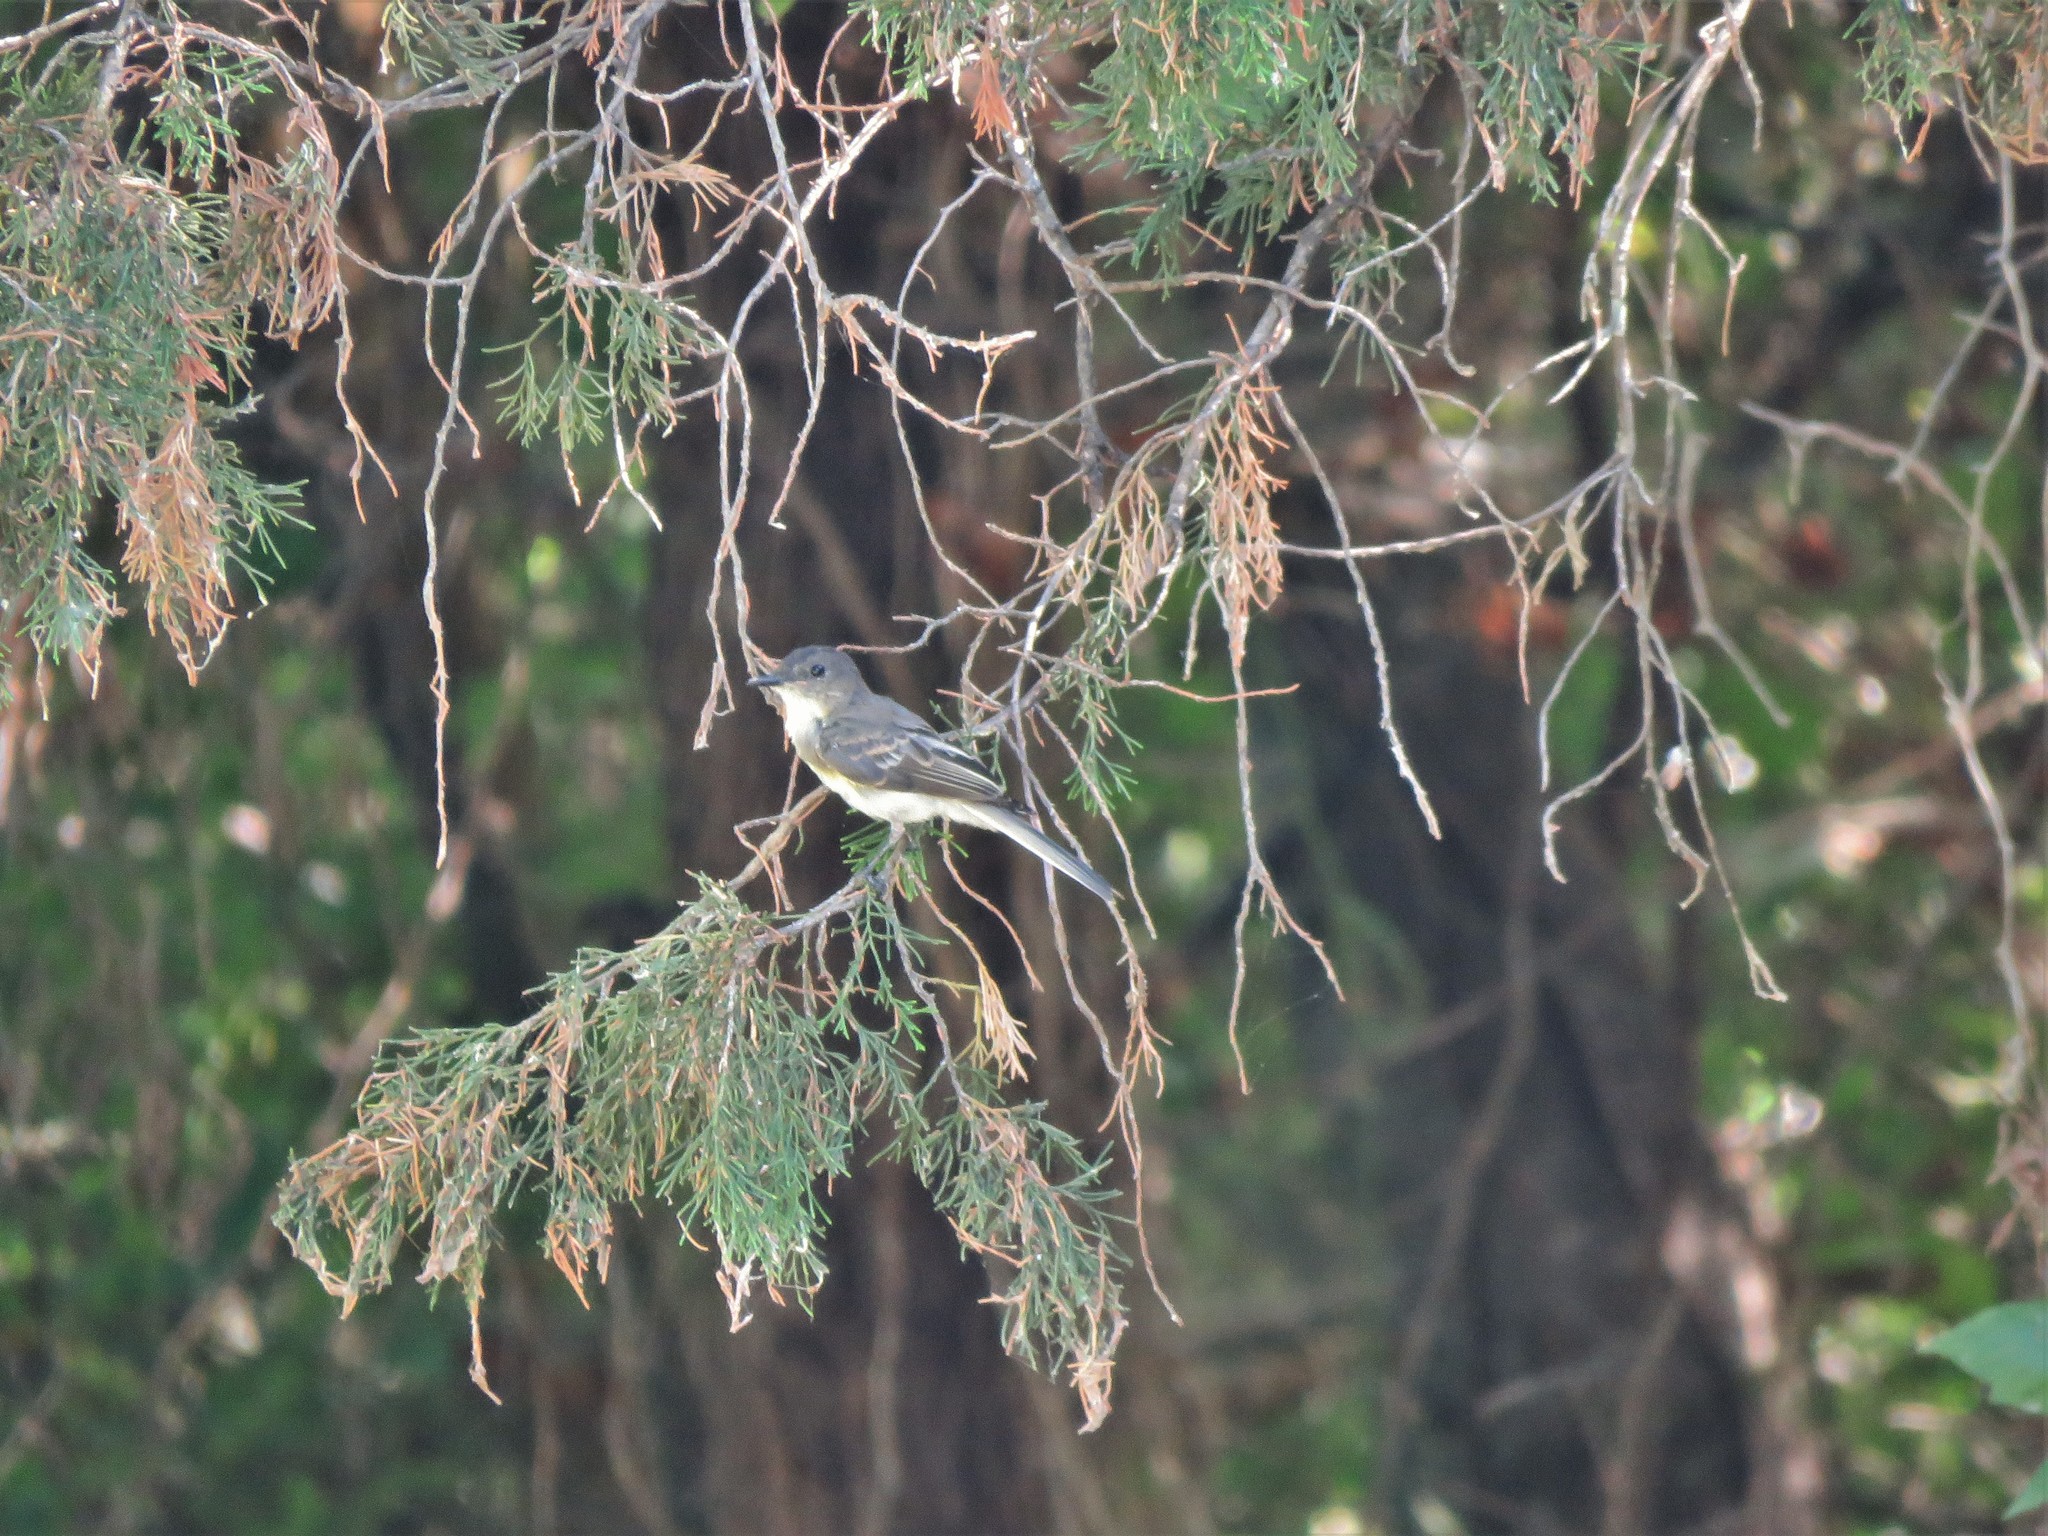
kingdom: Animalia
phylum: Chordata
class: Aves
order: Passeriformes
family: Tyrannidae
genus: Sayornis
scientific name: Sayornis phoebe
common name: Eastern phoebe
